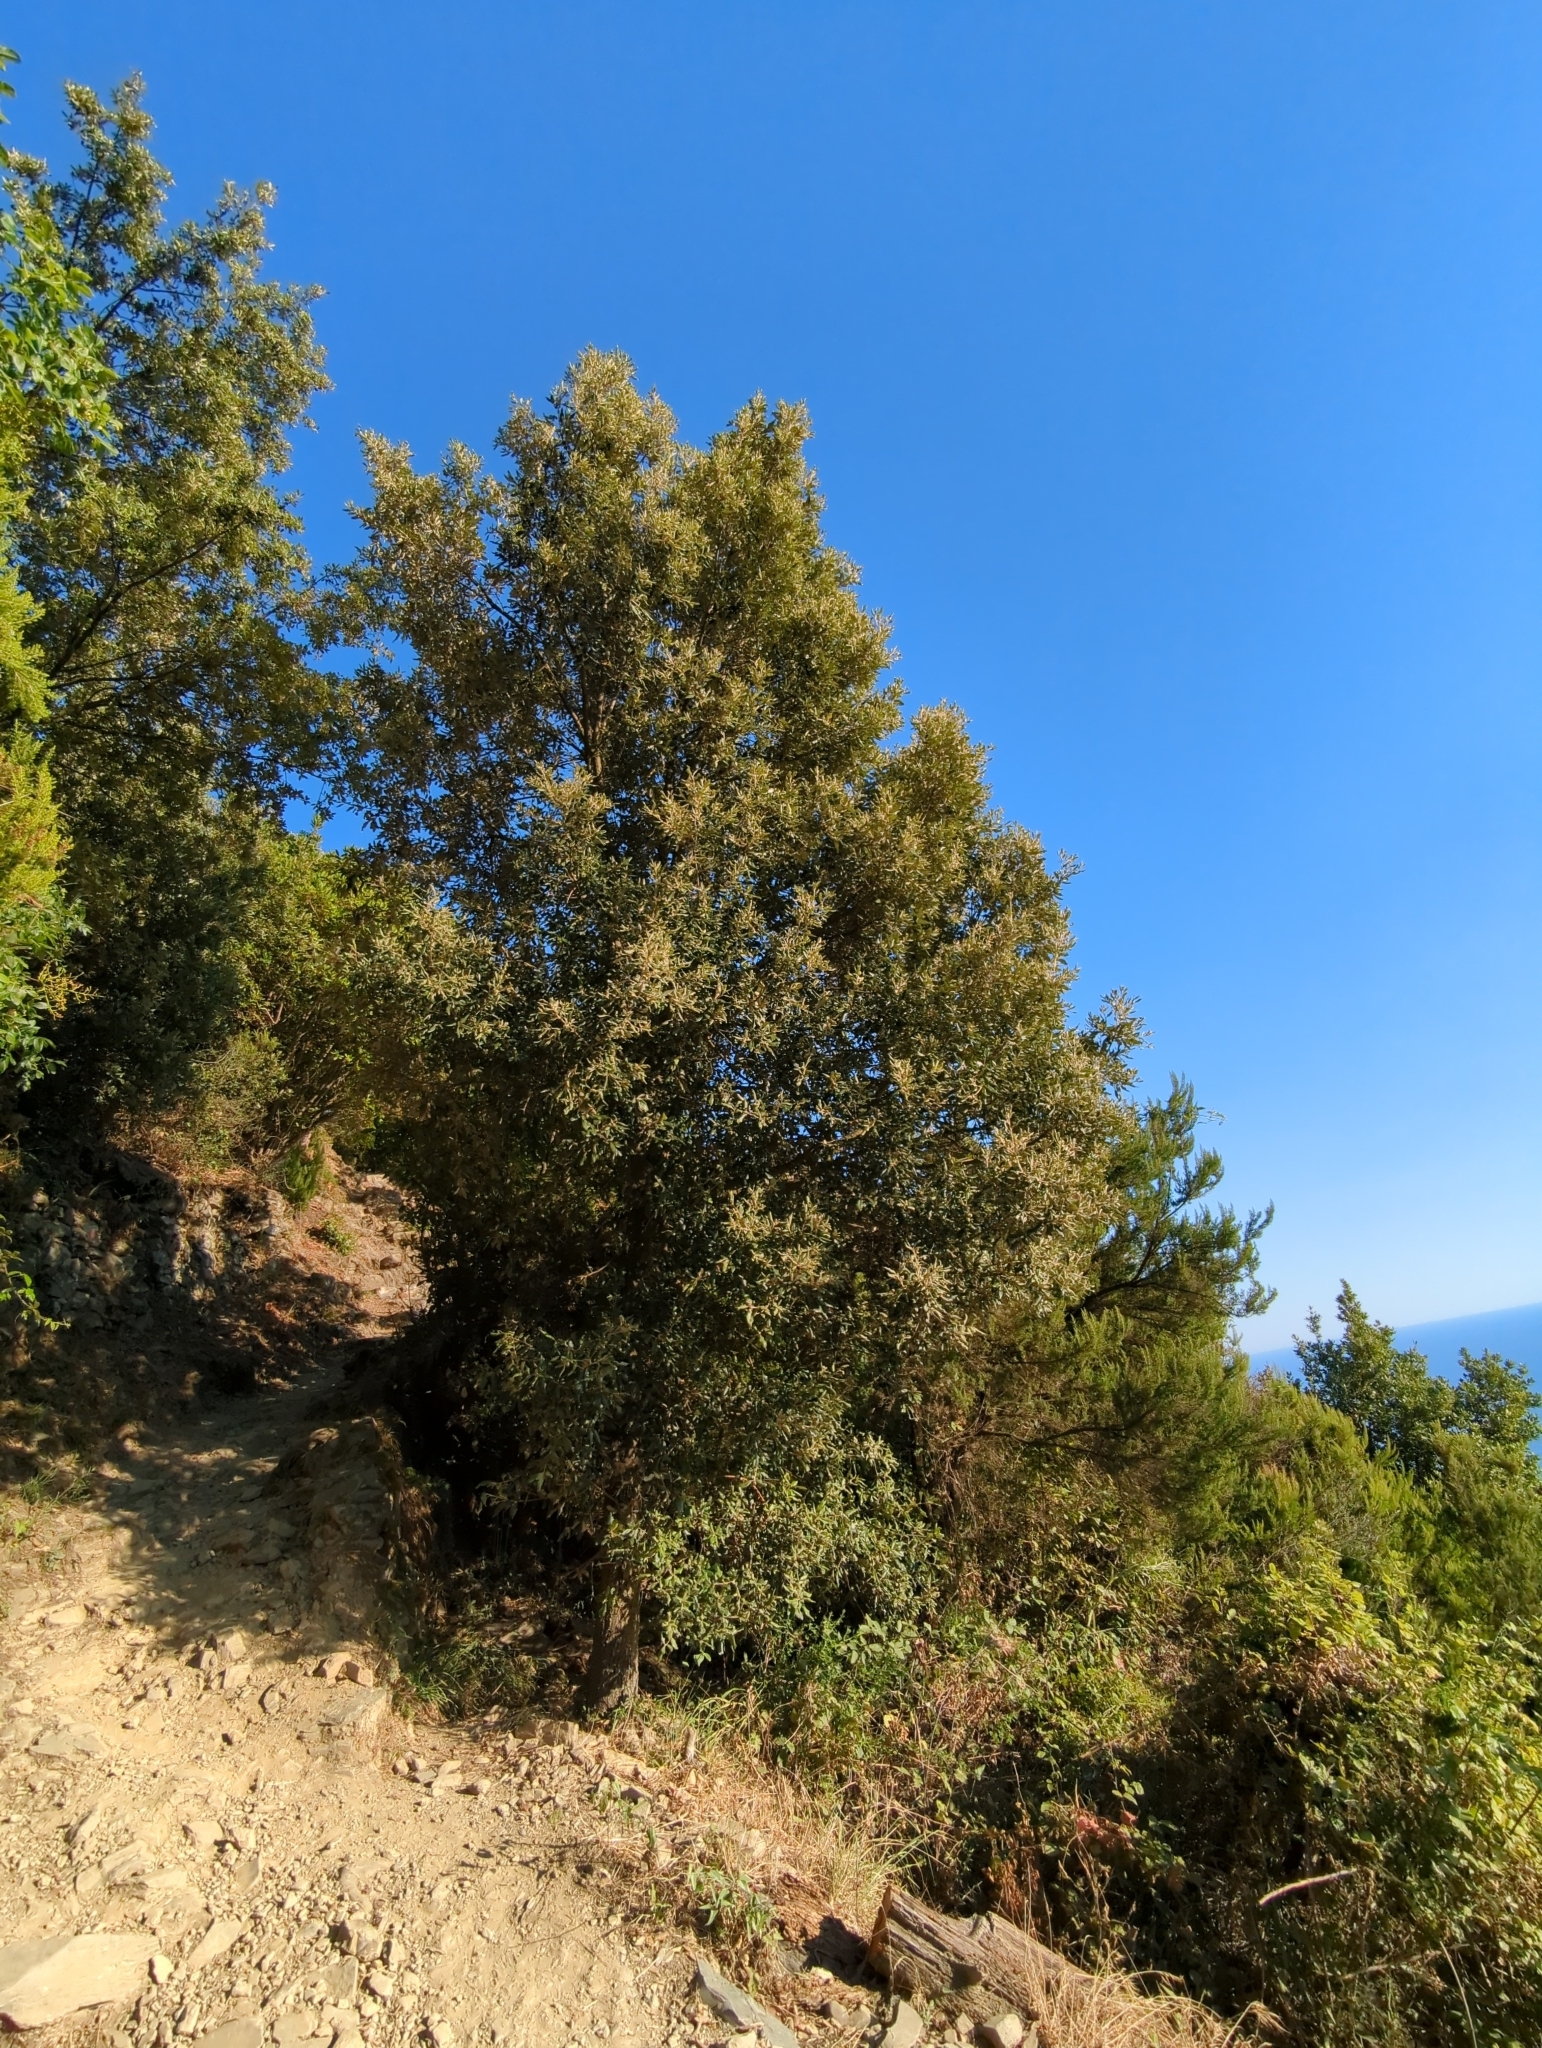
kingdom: Plantae
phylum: Tracheophyta
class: Magnoliopsida
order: Fagales
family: Fagaceae
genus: Quercus
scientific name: Quercus ilex
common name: Evergreen oak
